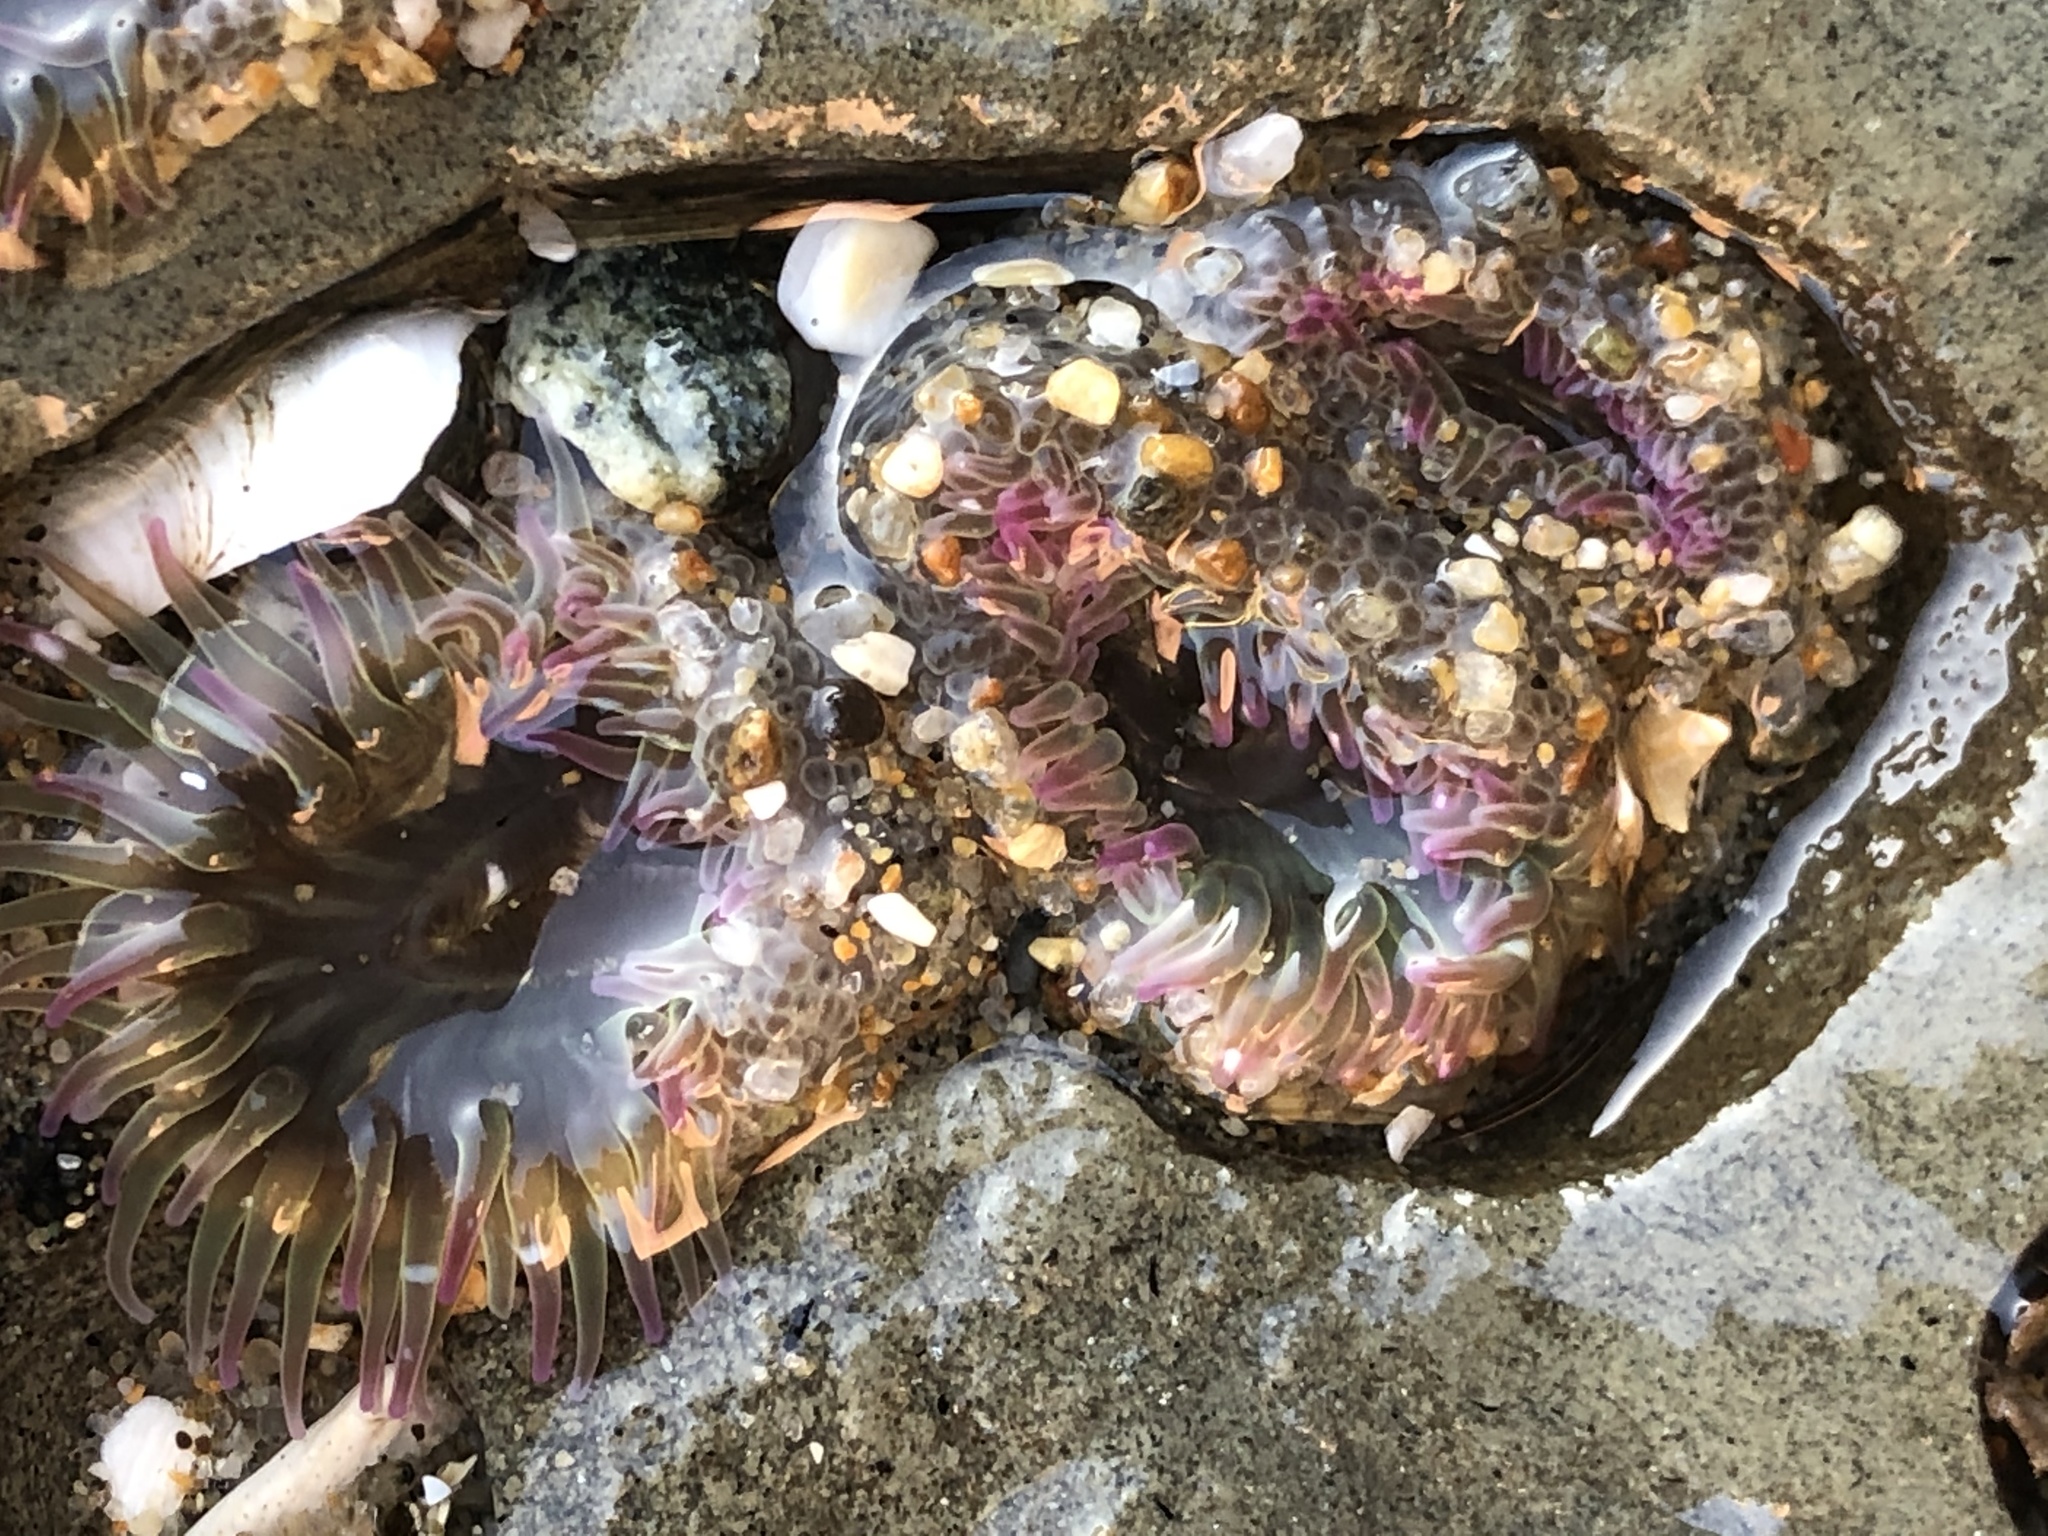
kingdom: Animalia
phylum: Cnidaria
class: Anthozoa
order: Actiniaria
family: Actiniidae
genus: Anthopleura
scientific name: Anthopleura elegantissima
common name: Clonal anemone
